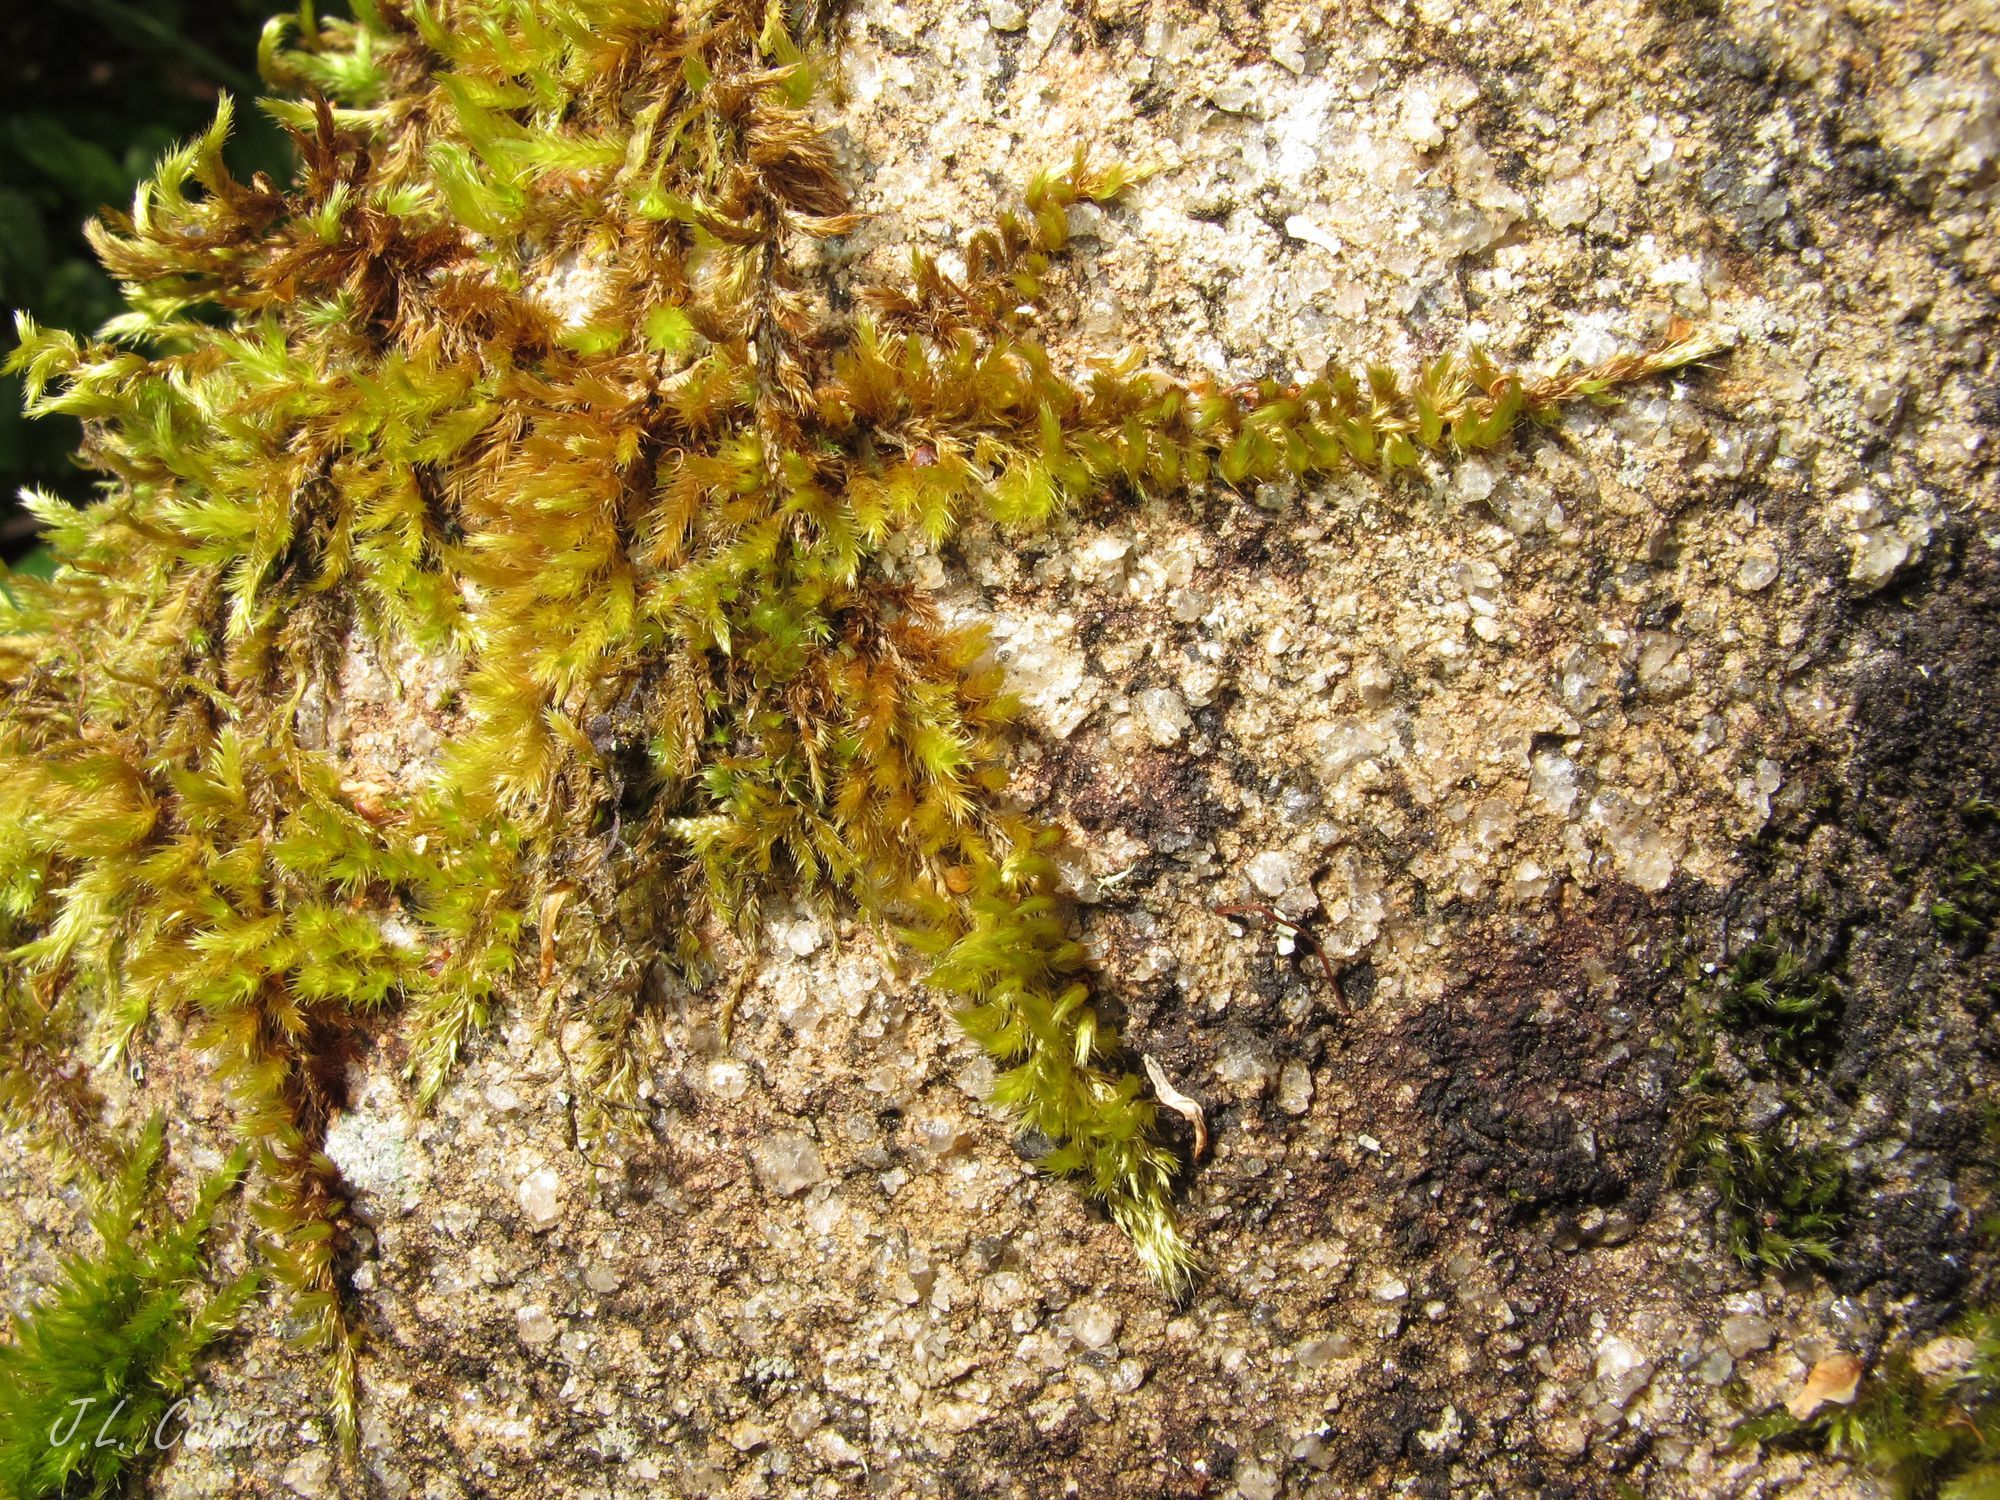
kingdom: Plantae
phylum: Bryophyta
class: Bryopsida
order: Hypnales
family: Brachytheciaceae
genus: Homalothecium
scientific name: Homalothecium sericeum
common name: Silky wall feather-moss
